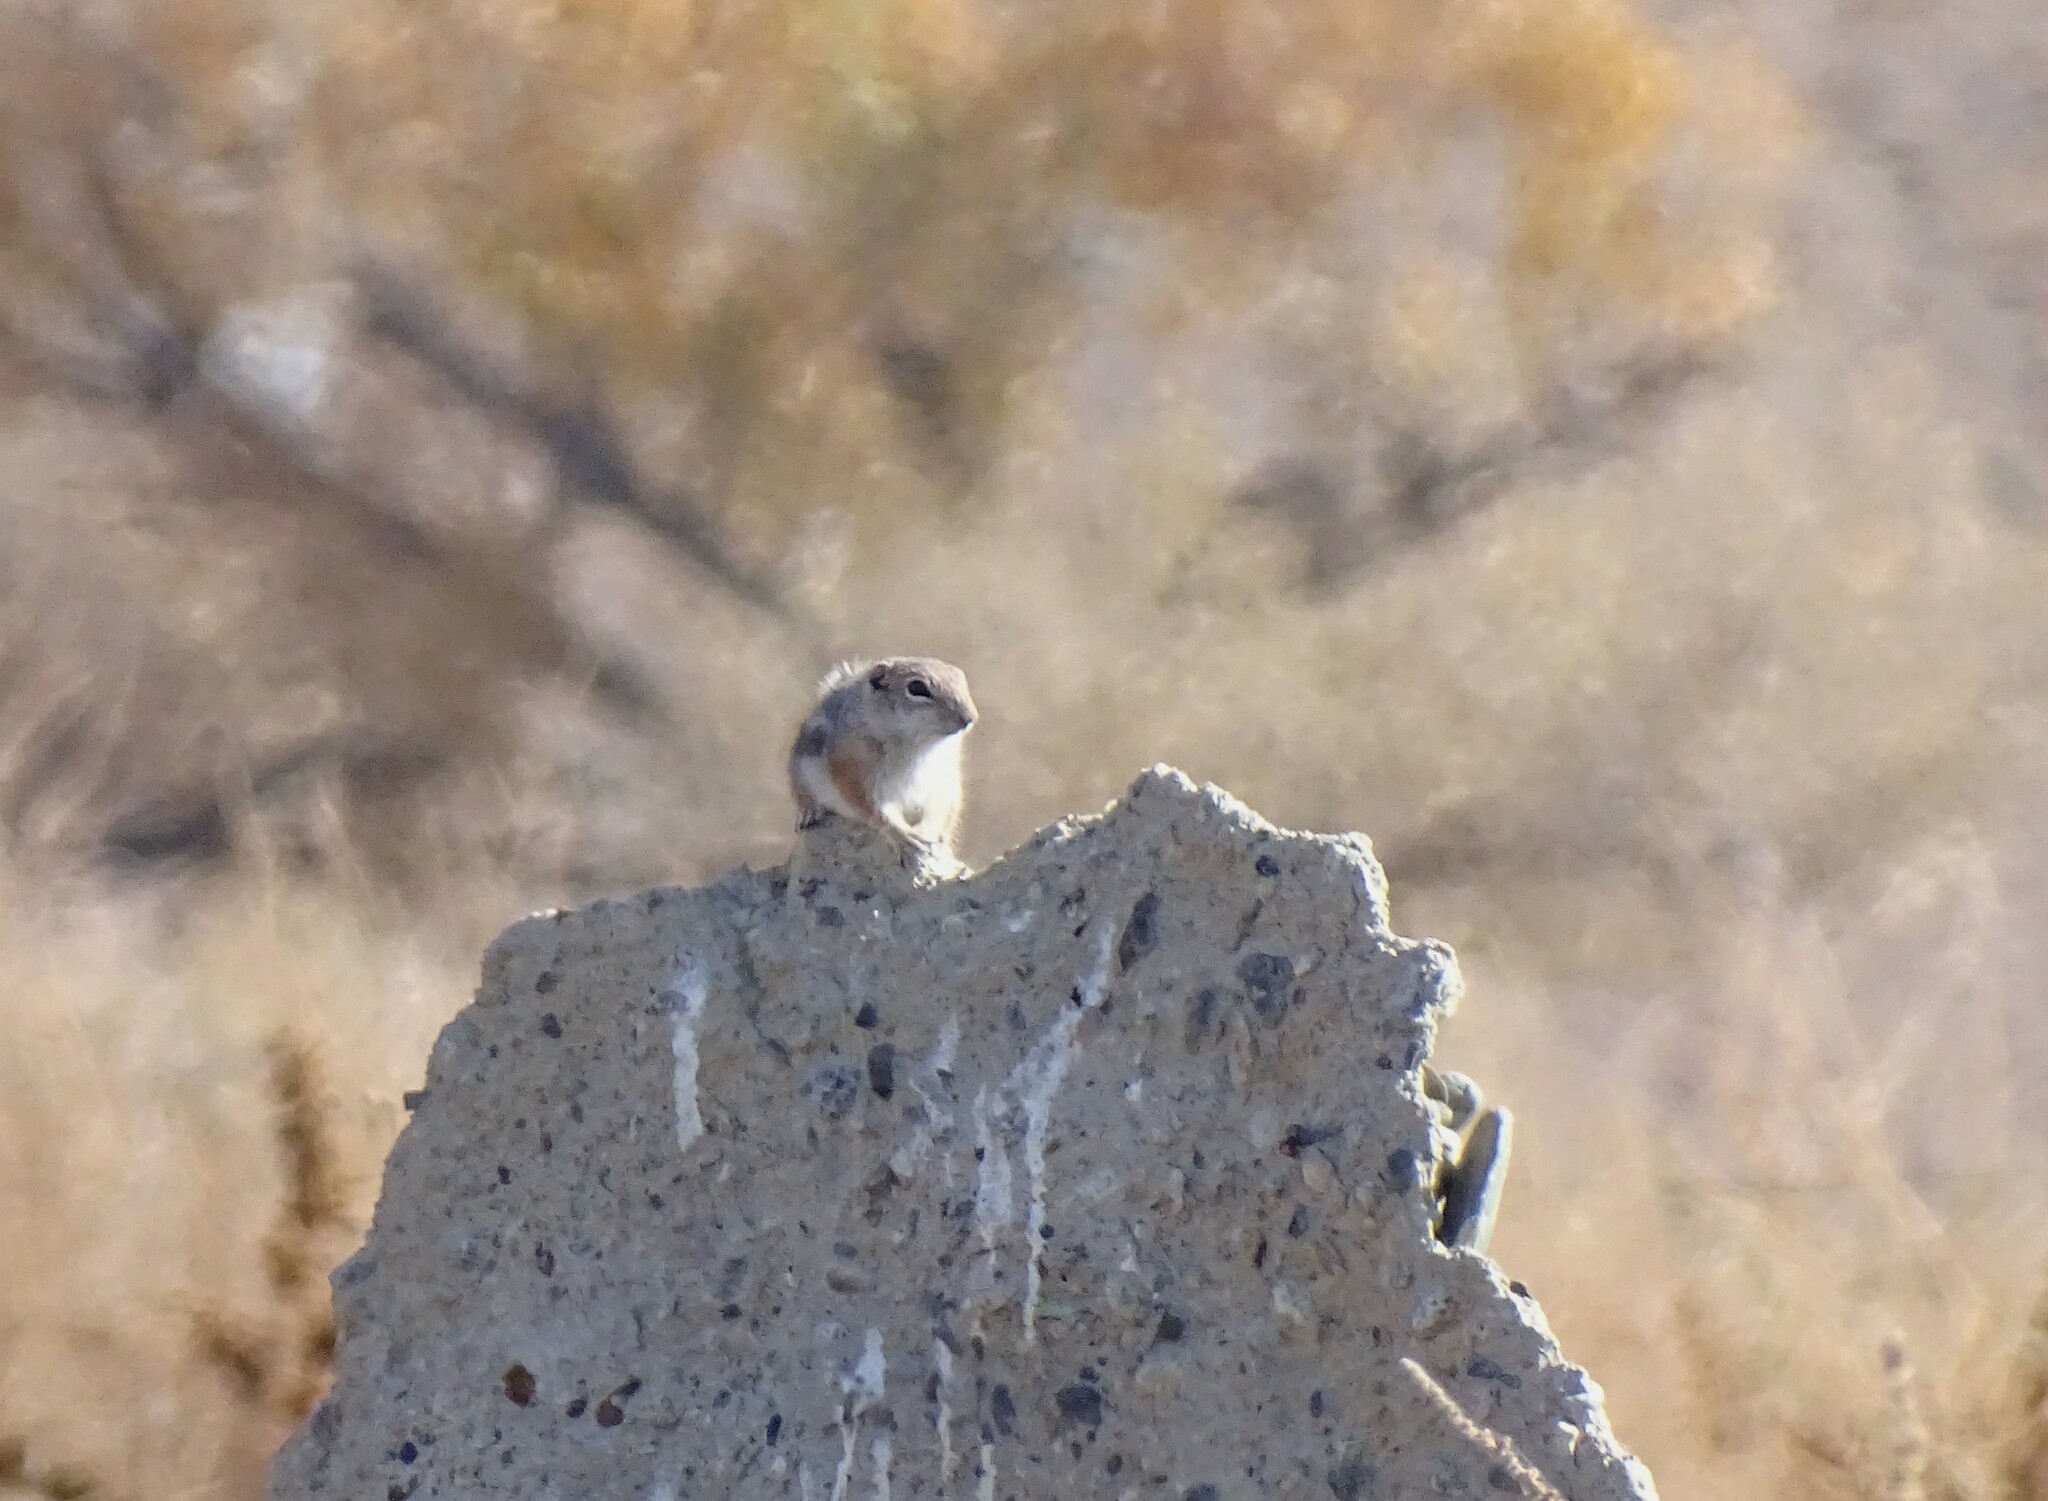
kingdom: Animalia
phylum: Chordata
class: Mammalia
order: Rodentia
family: Sciuridae
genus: Ammospermophilus
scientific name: Ammospermophilus leucurus
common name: White-tailed antelope squirrel
